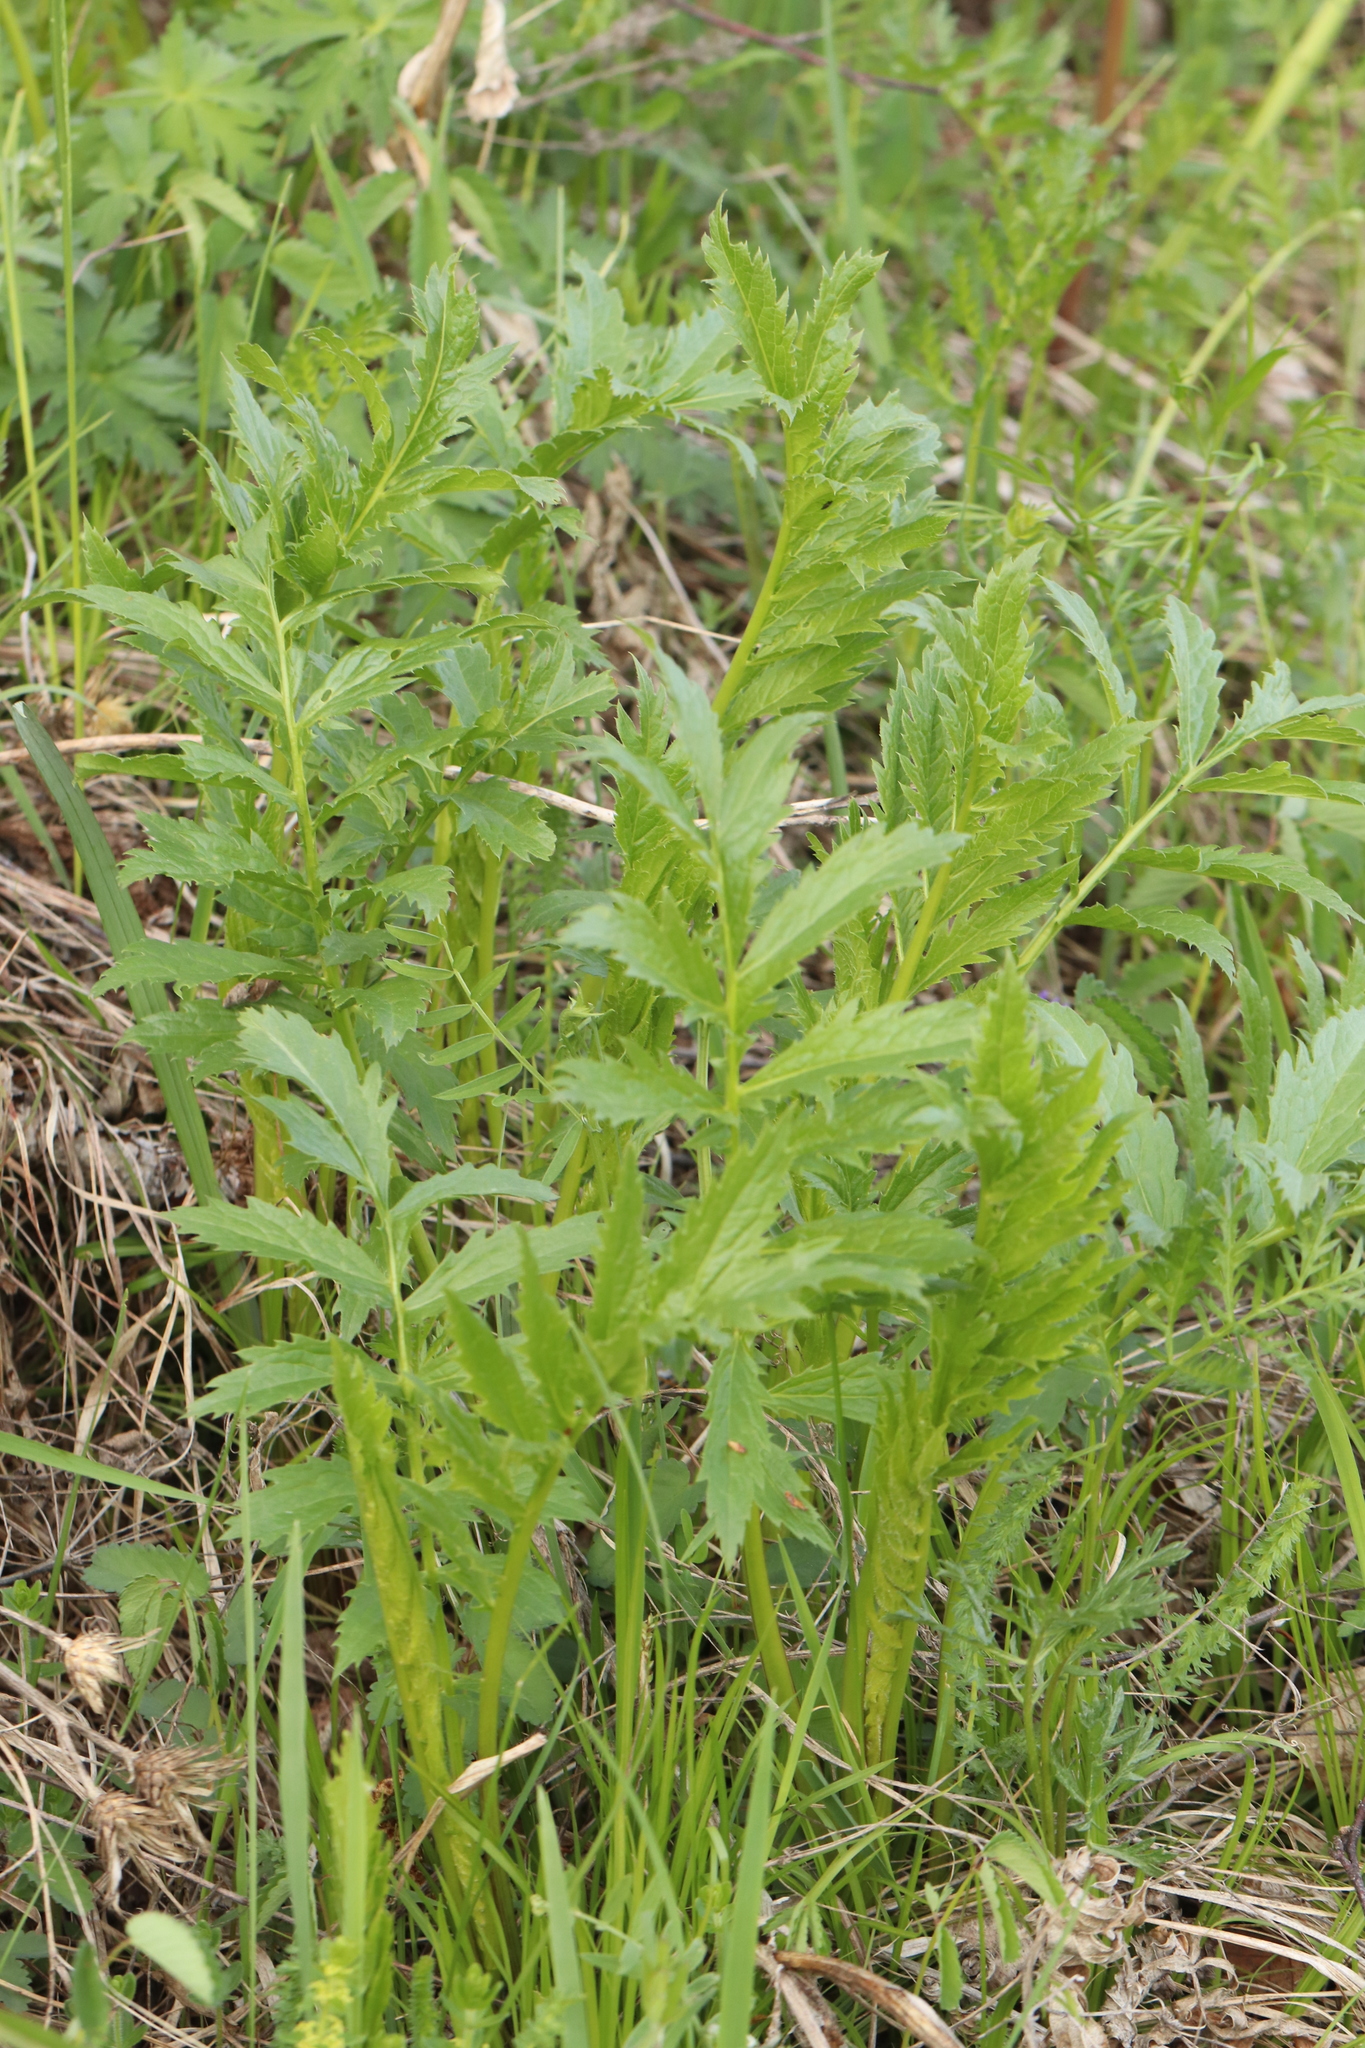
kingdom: Plantae
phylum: Tracheophyta
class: Magnoliopsida
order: Asterales
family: Asteraceae
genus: Serratula
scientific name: Serratula coronata
